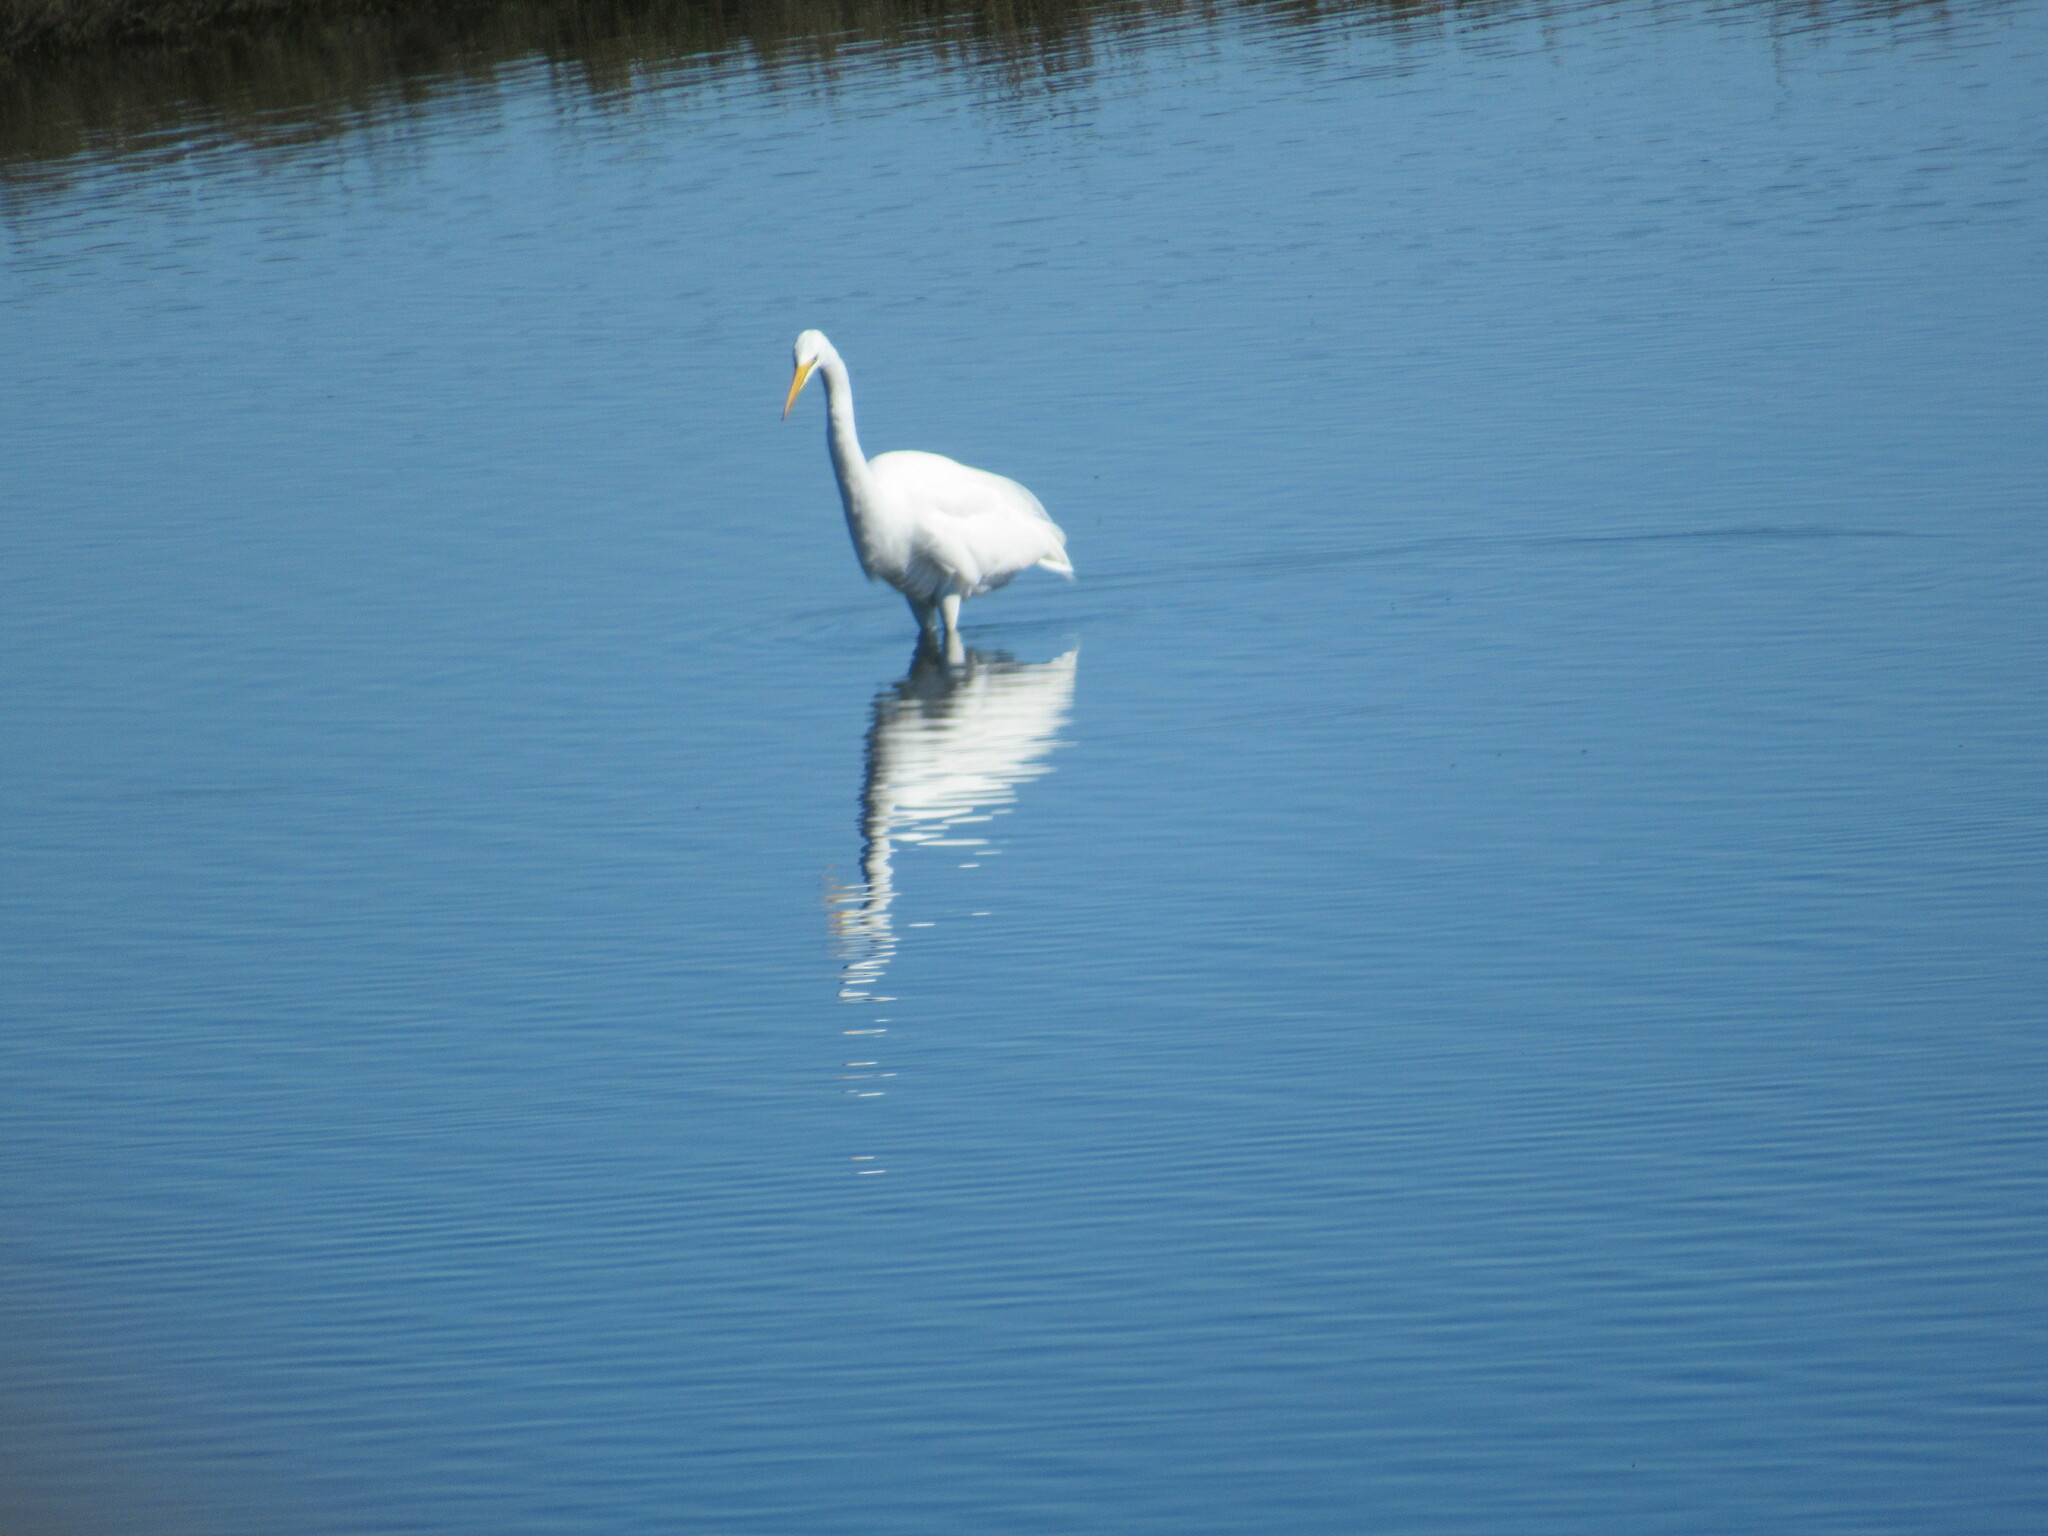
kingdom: Animalia
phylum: Chordata
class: Aves
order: Pelecaniformes
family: Ardeidae
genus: Ardea
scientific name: Ardea alba
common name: Great egret
